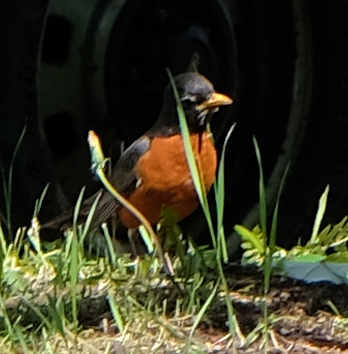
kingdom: Animalia
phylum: Chordata
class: Aves
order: Passeriformes
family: Turdidae
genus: Turdus
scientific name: Turdus migratorius
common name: American robin
